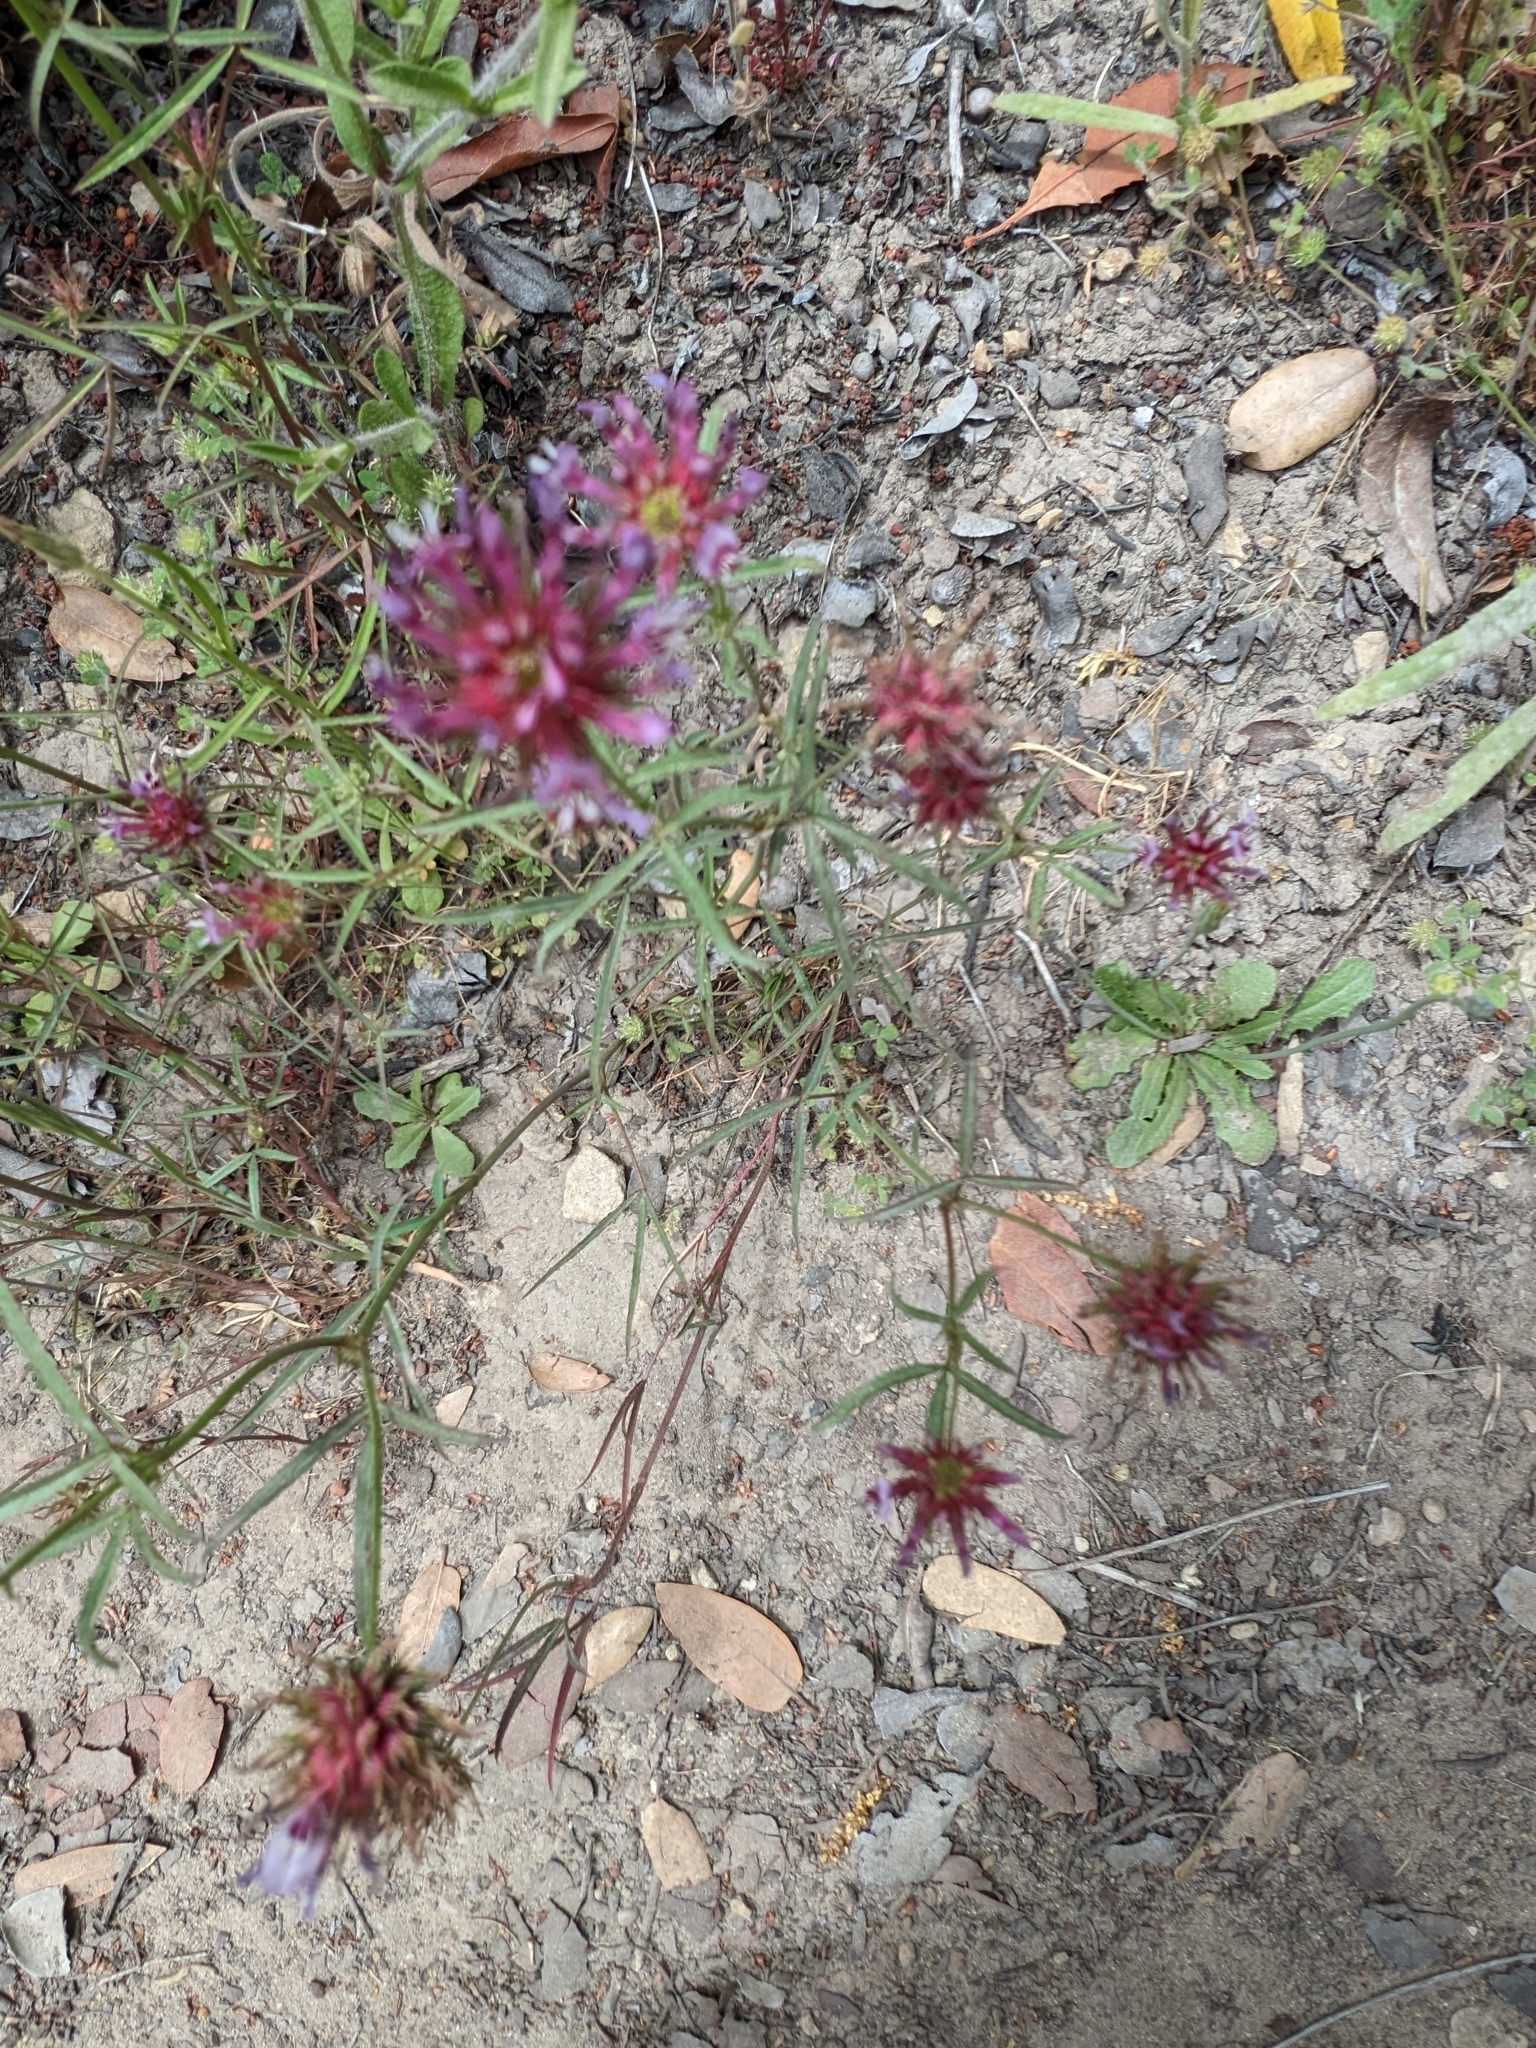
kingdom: Plantae
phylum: Tracheophyta
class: Magnoliopsida
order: Fabales
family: Fabaceae
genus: Trifolium
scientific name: Trifolium willdenovii
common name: Tomcat clover
